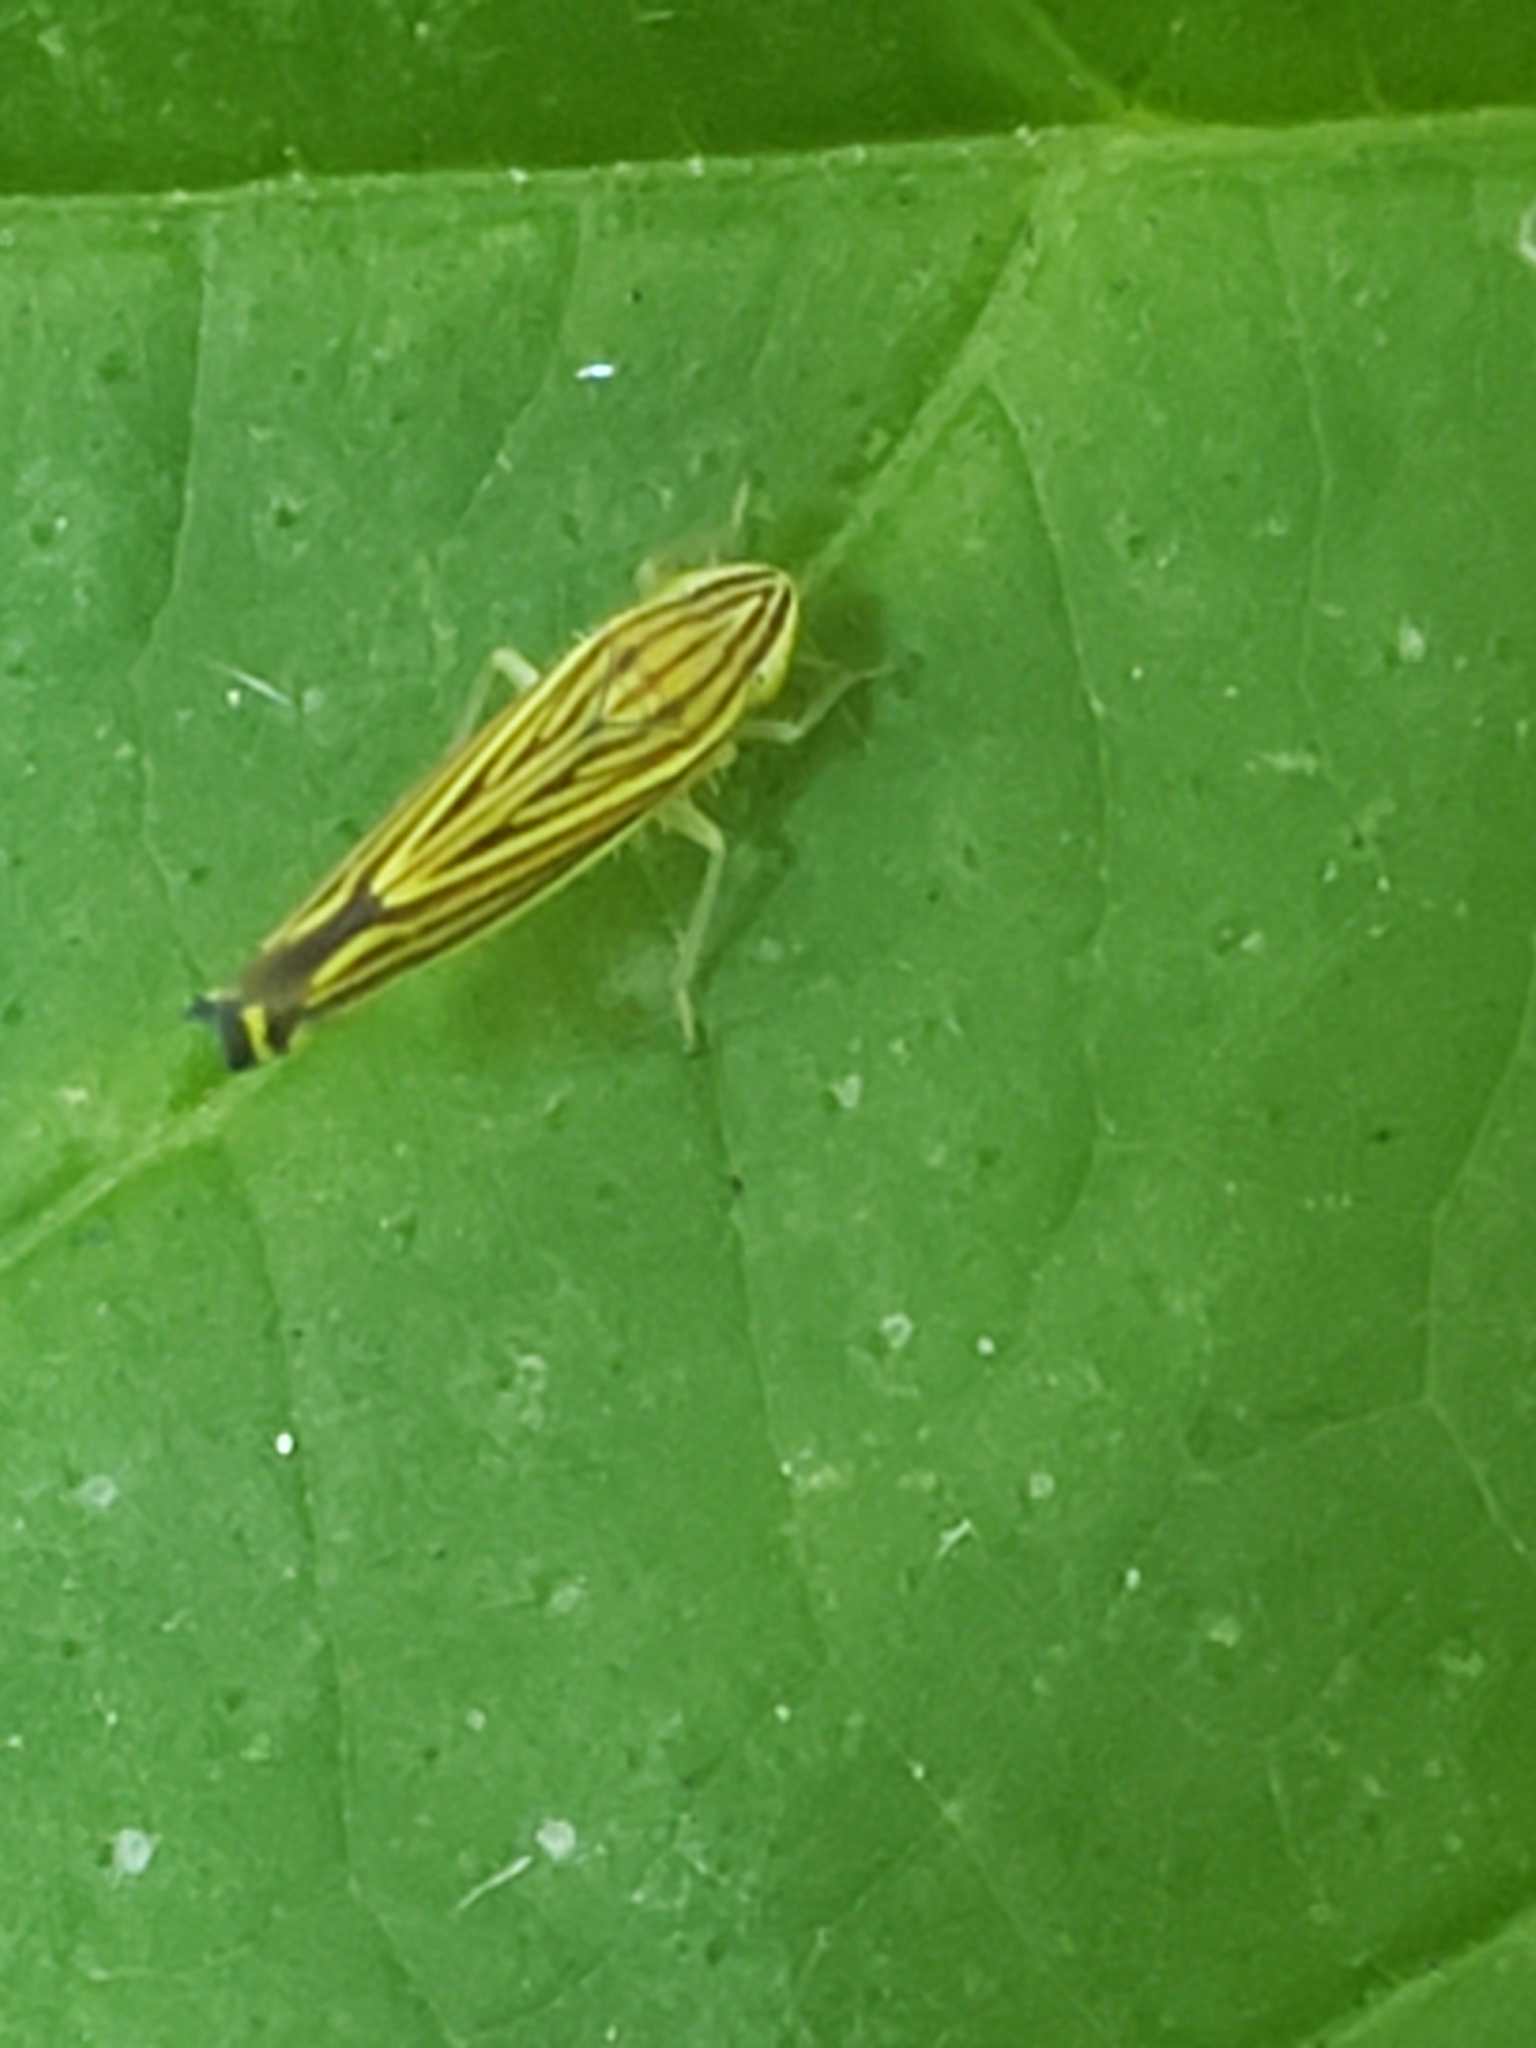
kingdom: Animalia
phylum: Arthropoda
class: Insecta
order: Hemiptera
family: Cicadellidae
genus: Sibovia
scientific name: Sibovia occatoria
